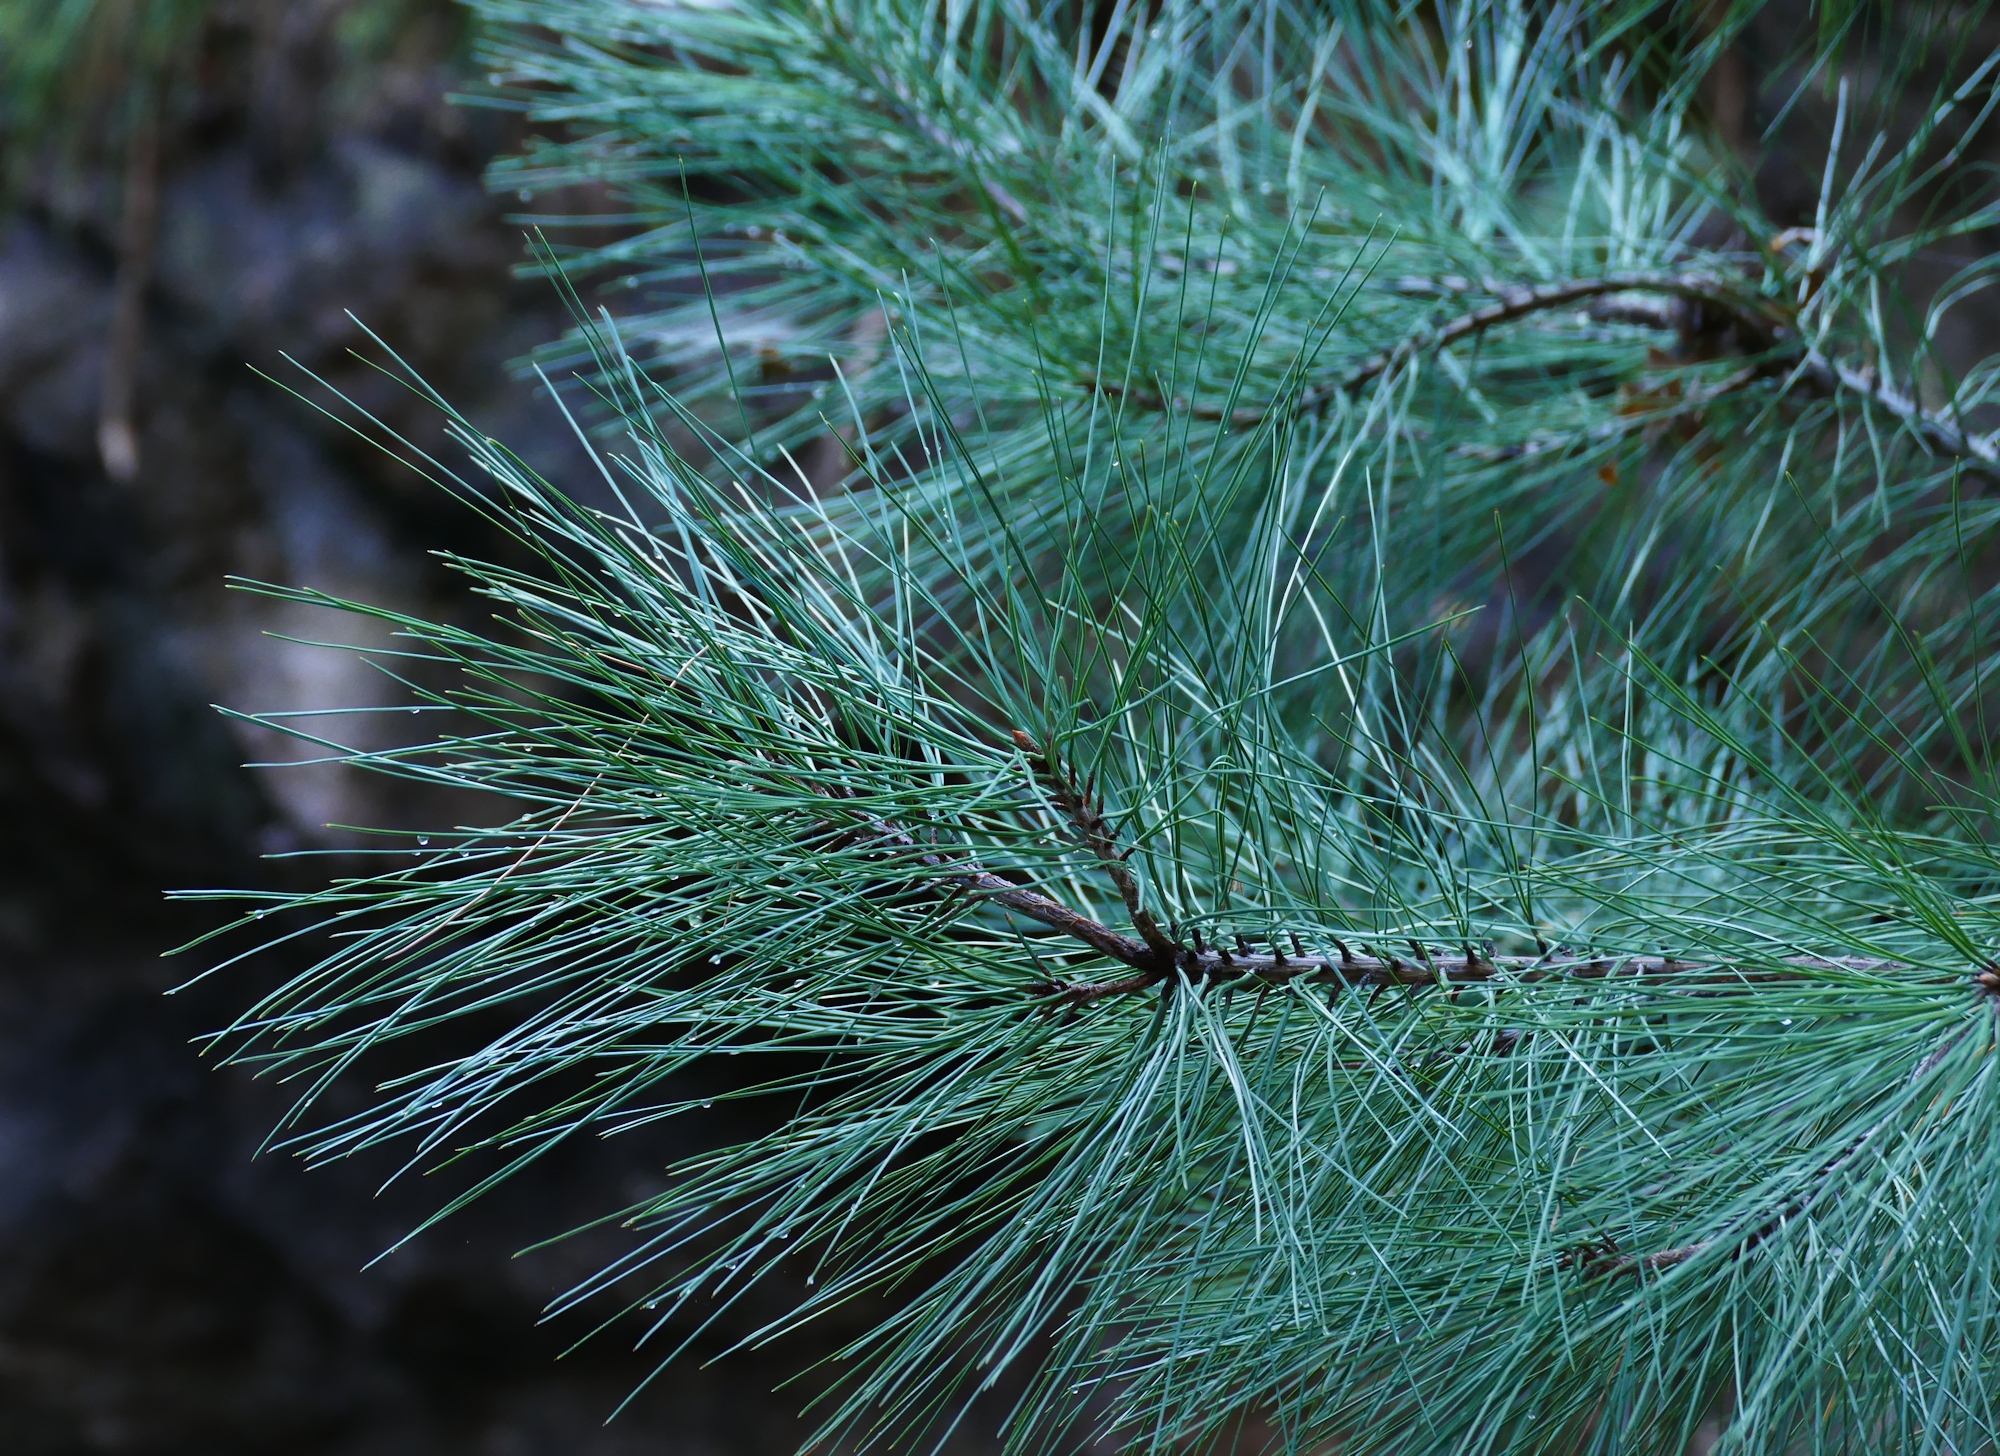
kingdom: Plantae
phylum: Tracheophyta
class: Pinopsida
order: Pinales
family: Pinaceae
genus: Pinus
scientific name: Pinus ponderosa
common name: Western yellow-pine
